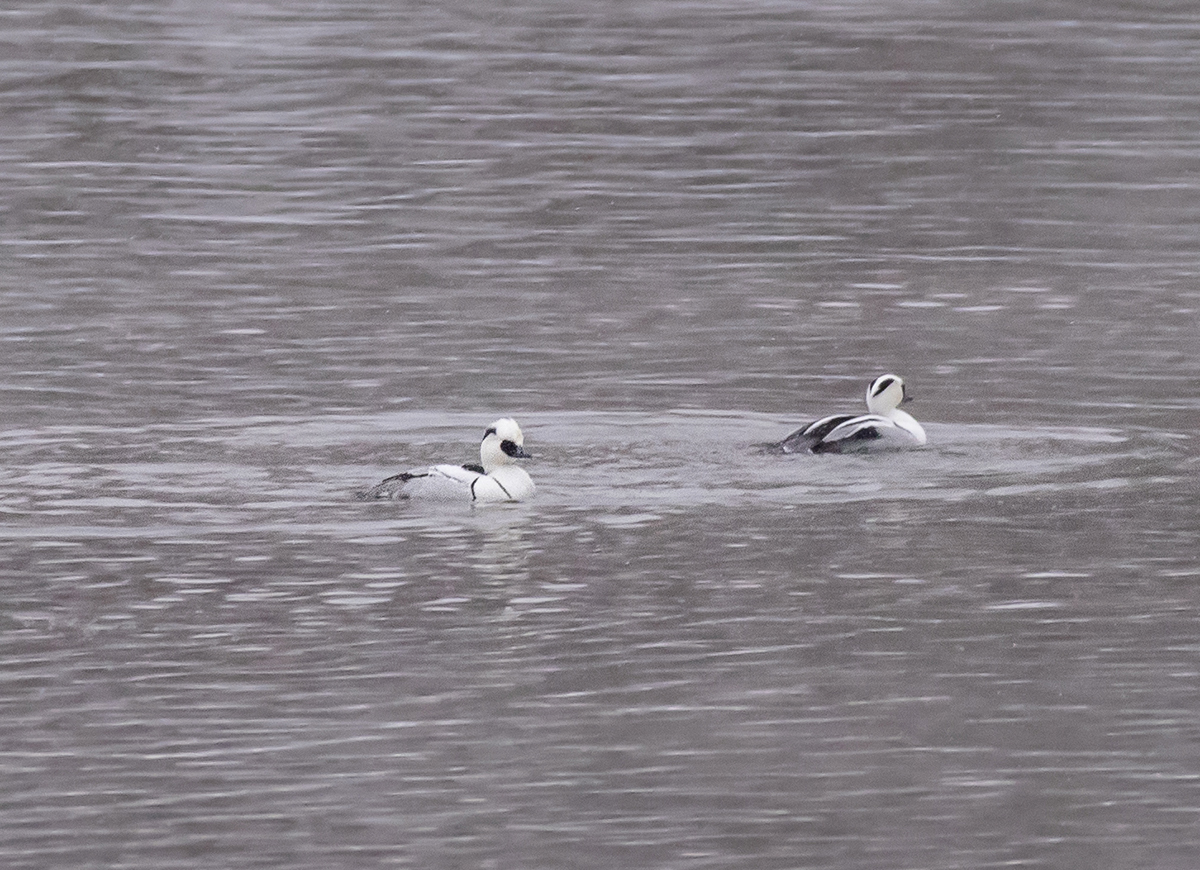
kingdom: Animalia
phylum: Chordata
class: Aves
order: Anseriformes
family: Anatidae
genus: Mergellus
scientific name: Mergellus albellus
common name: Smew
